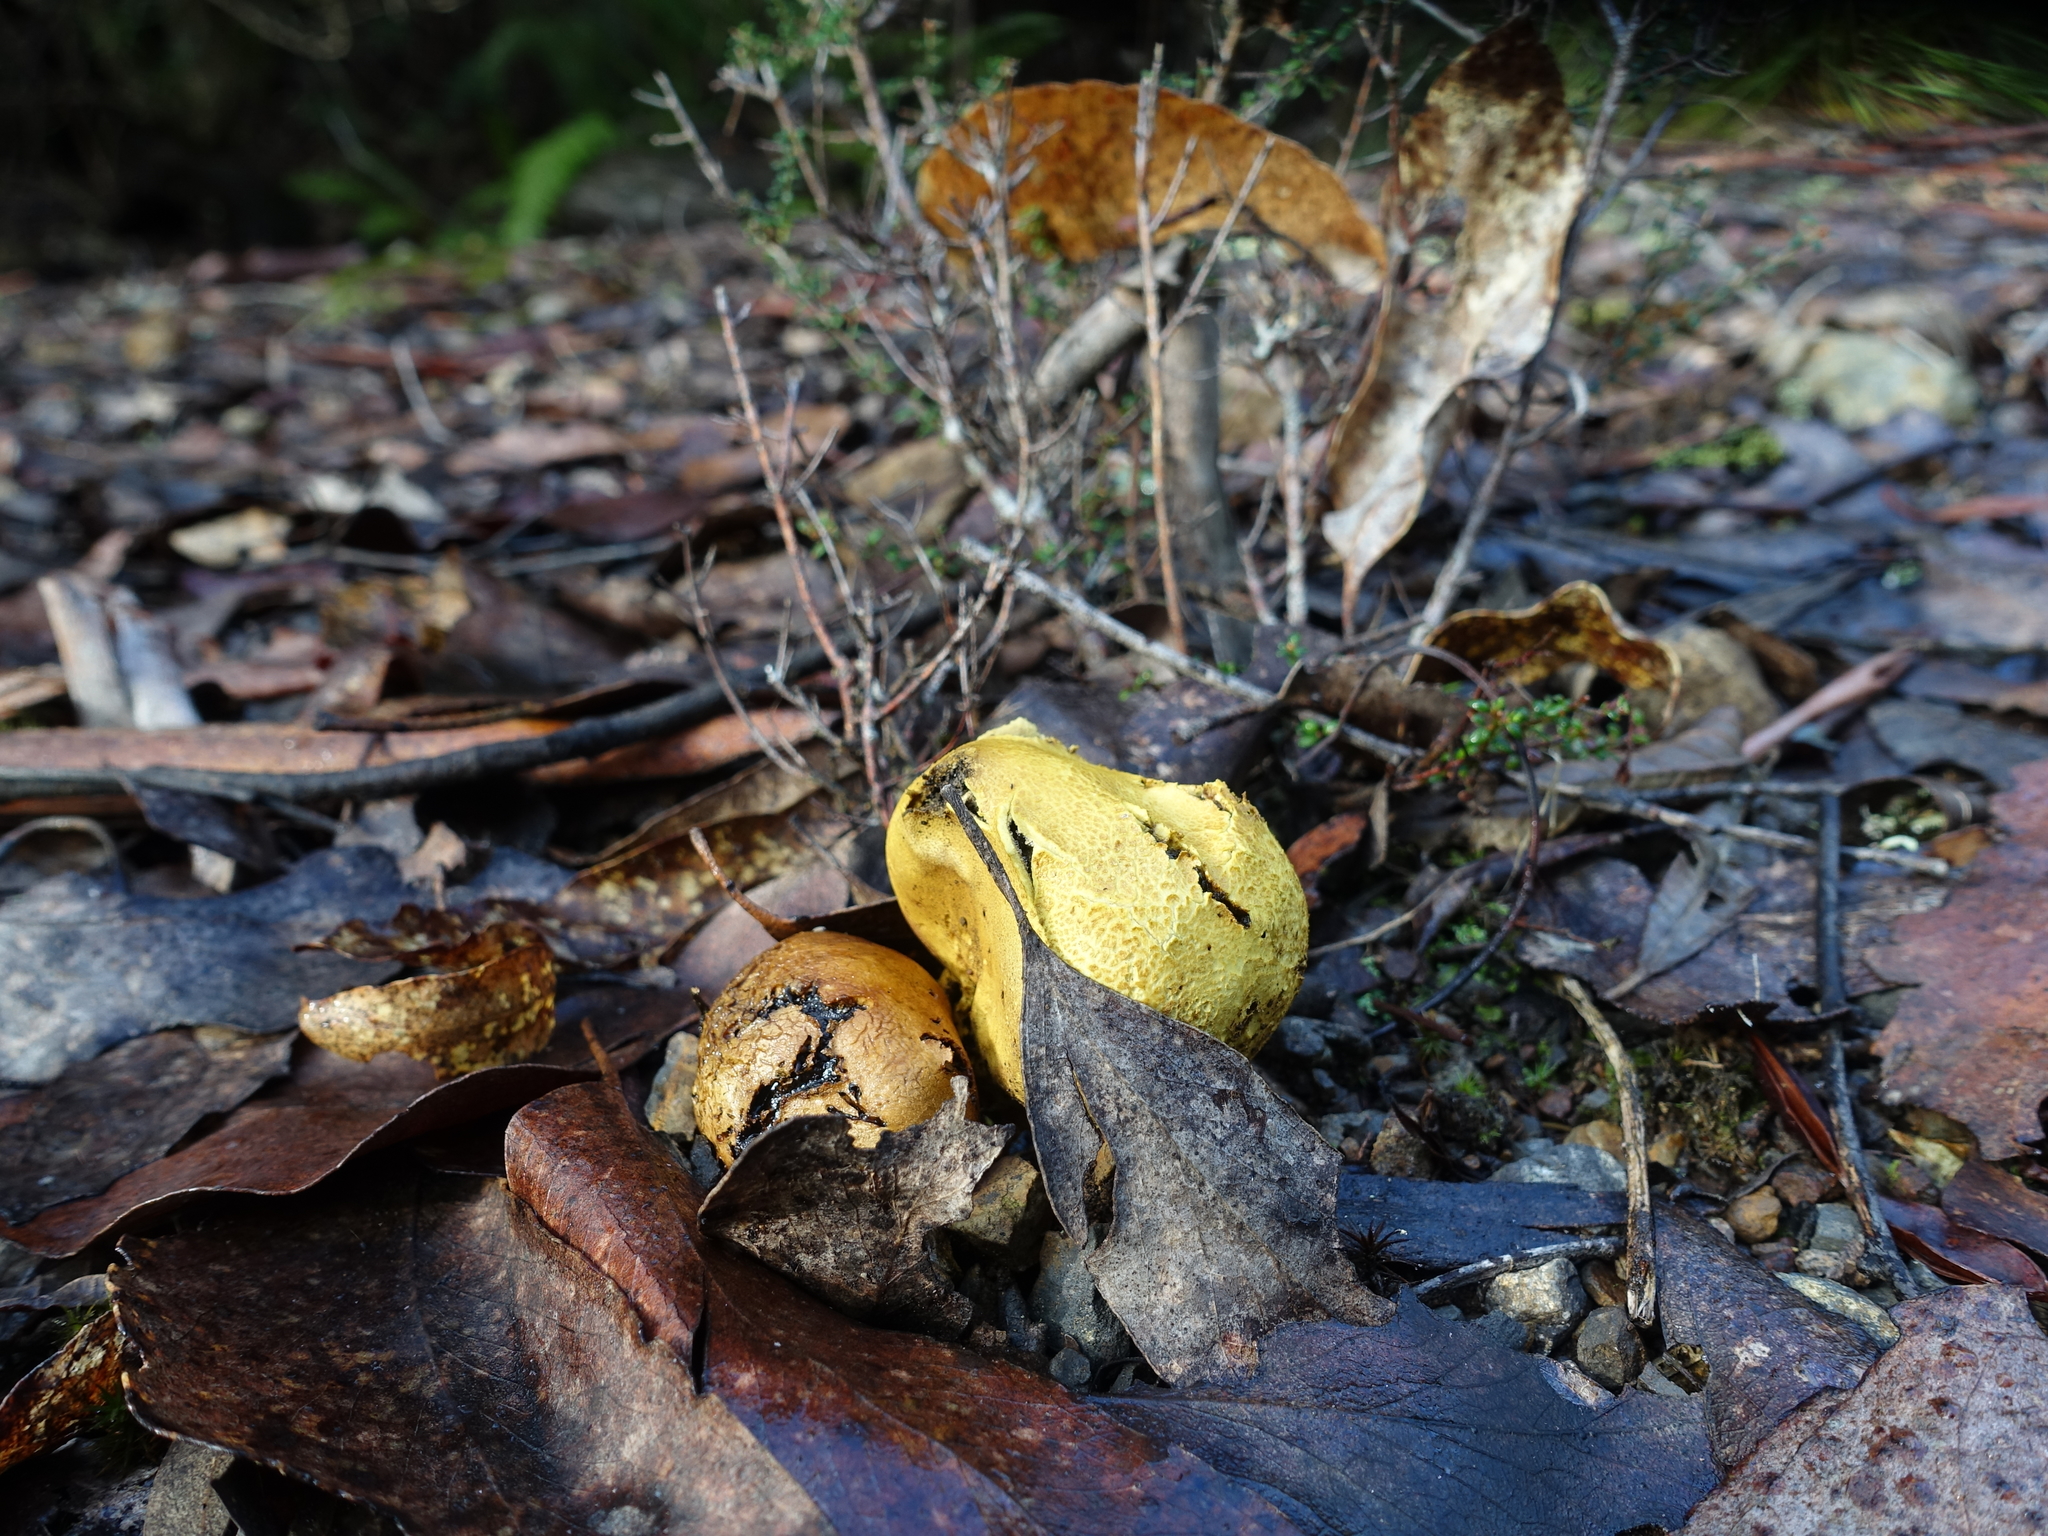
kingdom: Fungi
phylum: Basidiomycota
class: Agaricomycetes
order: Boletales
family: Sclerodermataceae
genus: Scleroderma
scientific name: Scleroderma cepa
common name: Onion earthball
